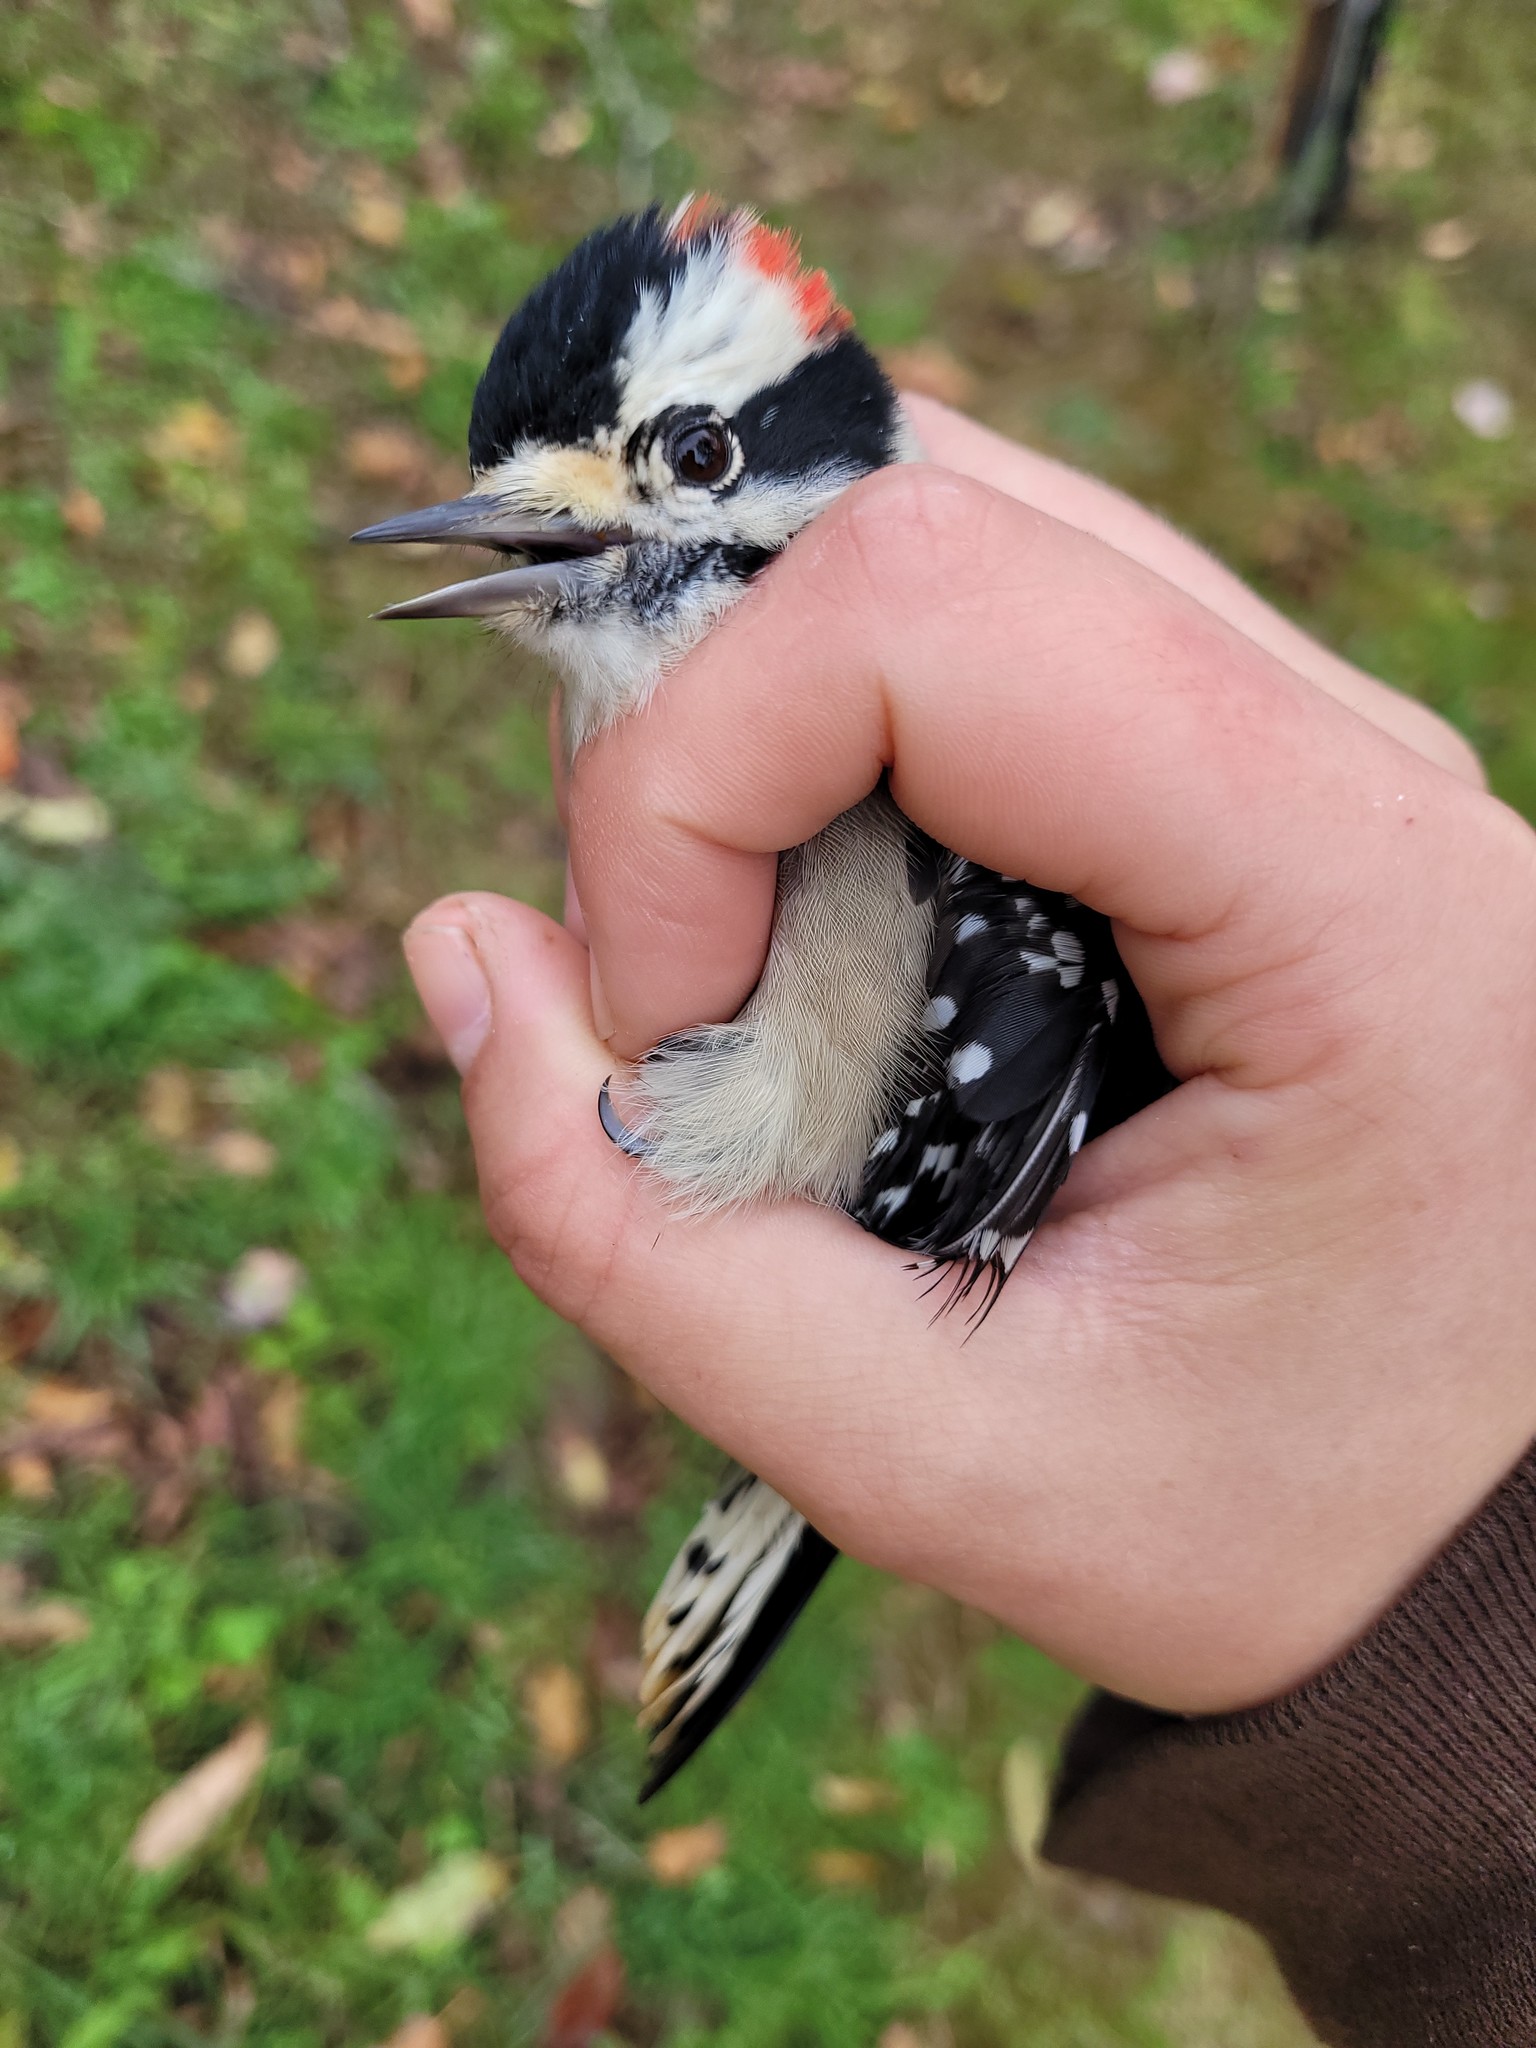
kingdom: Animalia
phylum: Chordata
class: Aves
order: Piciformes
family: Picidae
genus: Dryobates
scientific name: Dryobates pubescens
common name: Downy woodpecker
